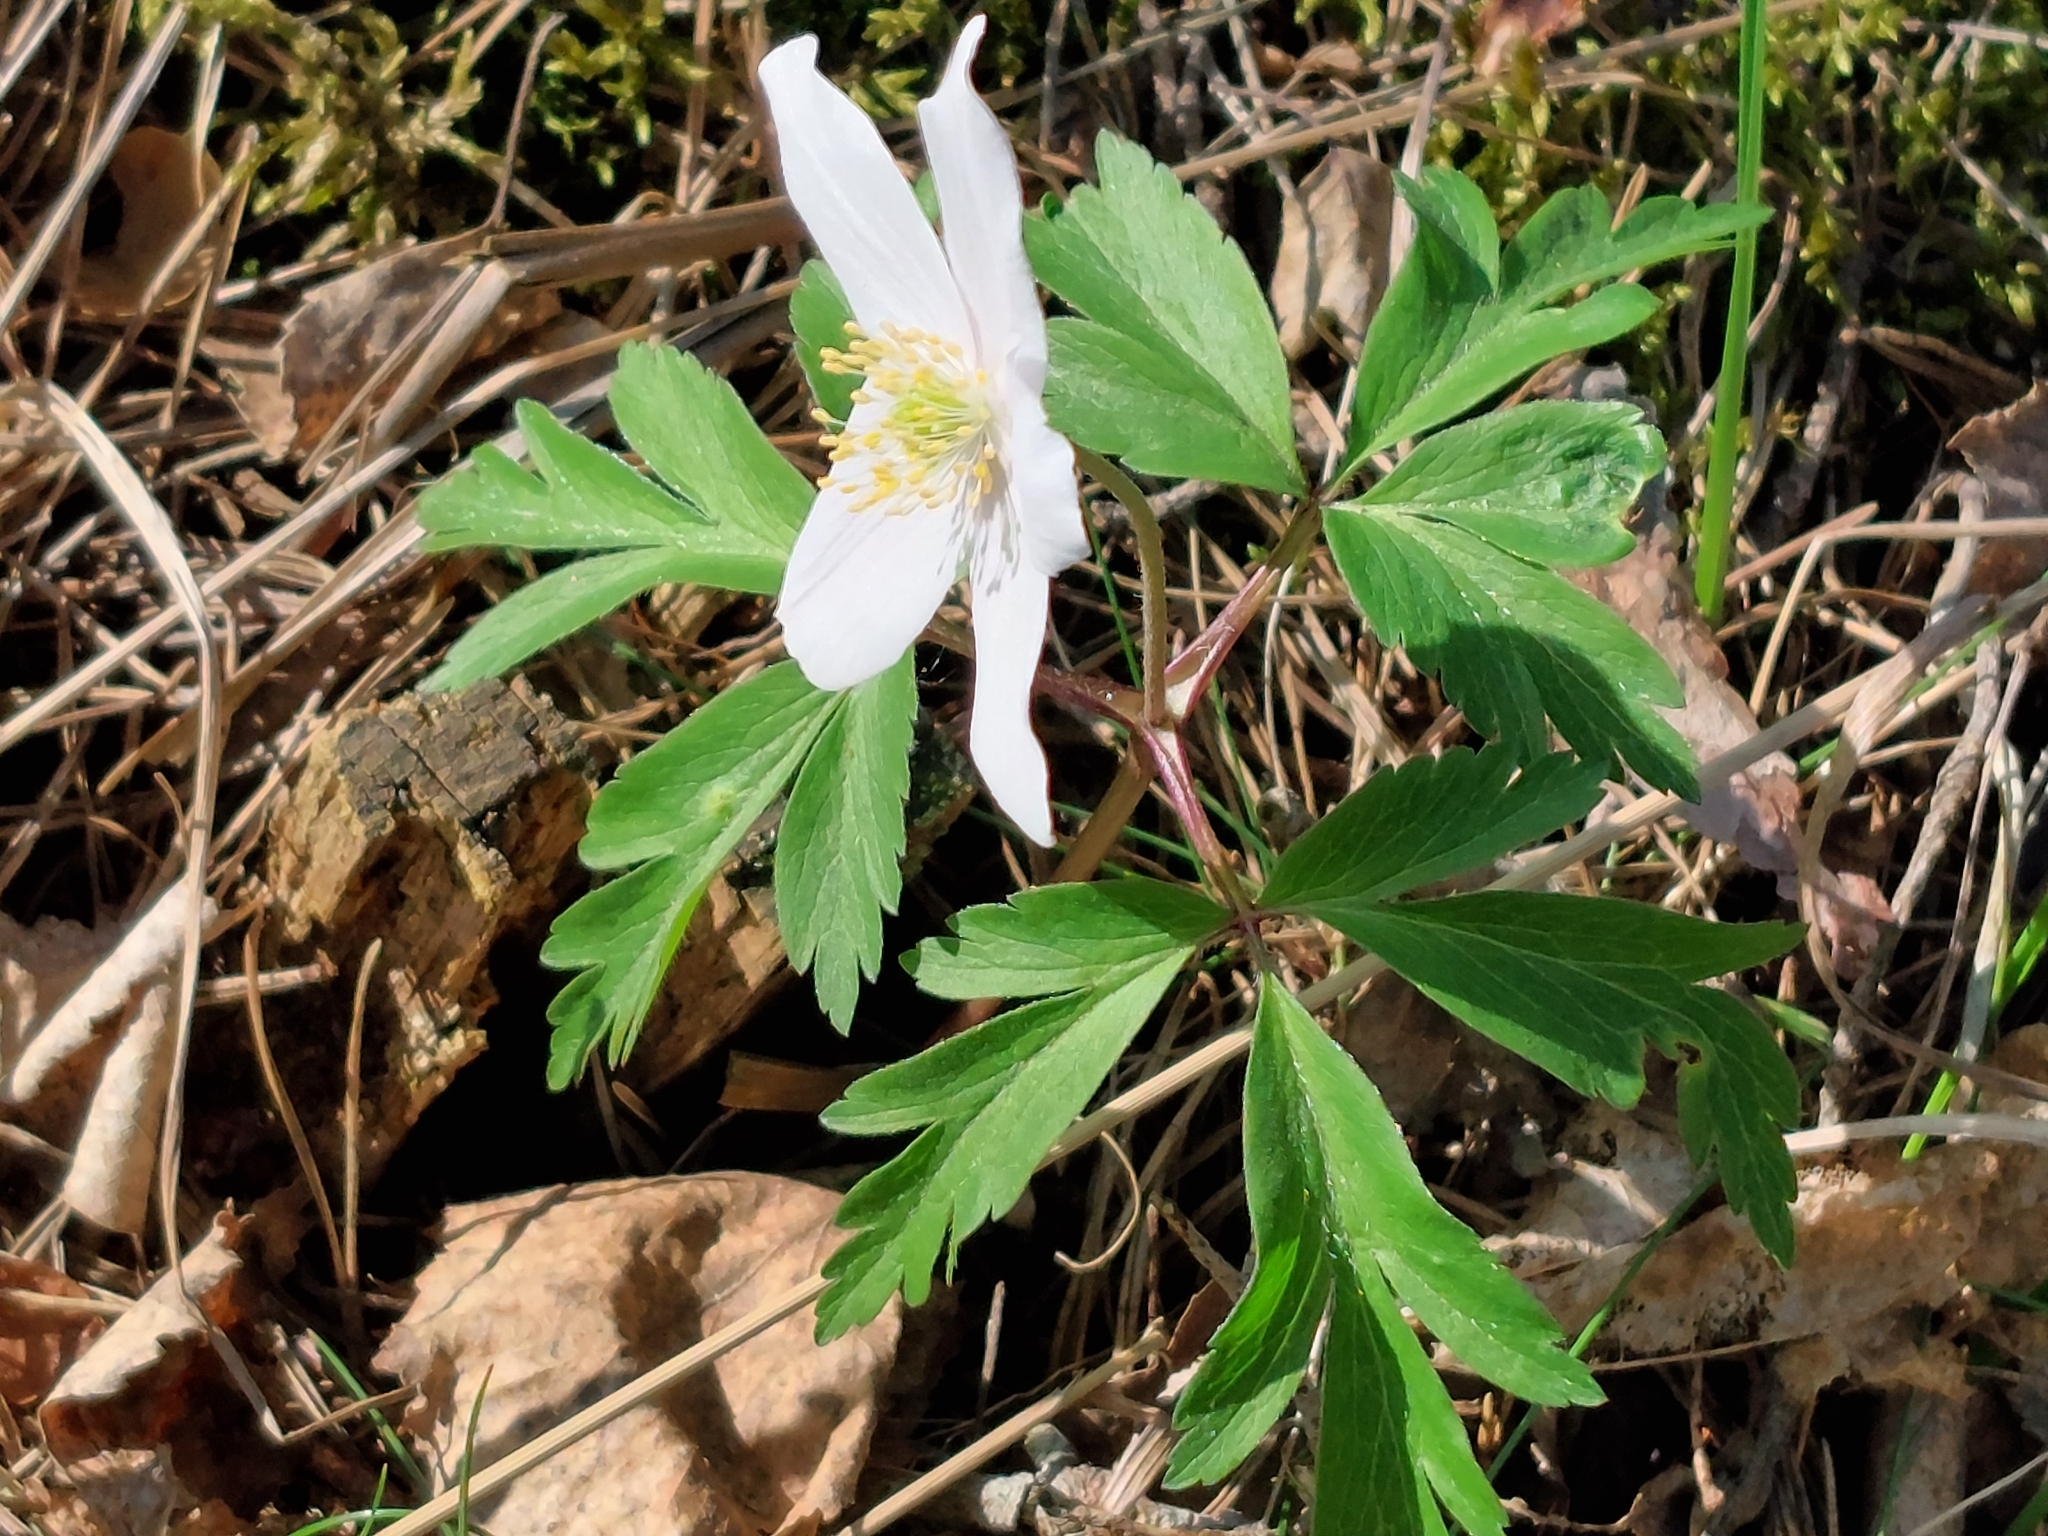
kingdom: Plantae
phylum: Tracheophyta
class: Magnoliopsida
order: Ranunculales
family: Ranunculaceae
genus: Anemone
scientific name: Anemone nemorosa
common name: Wood anemone
